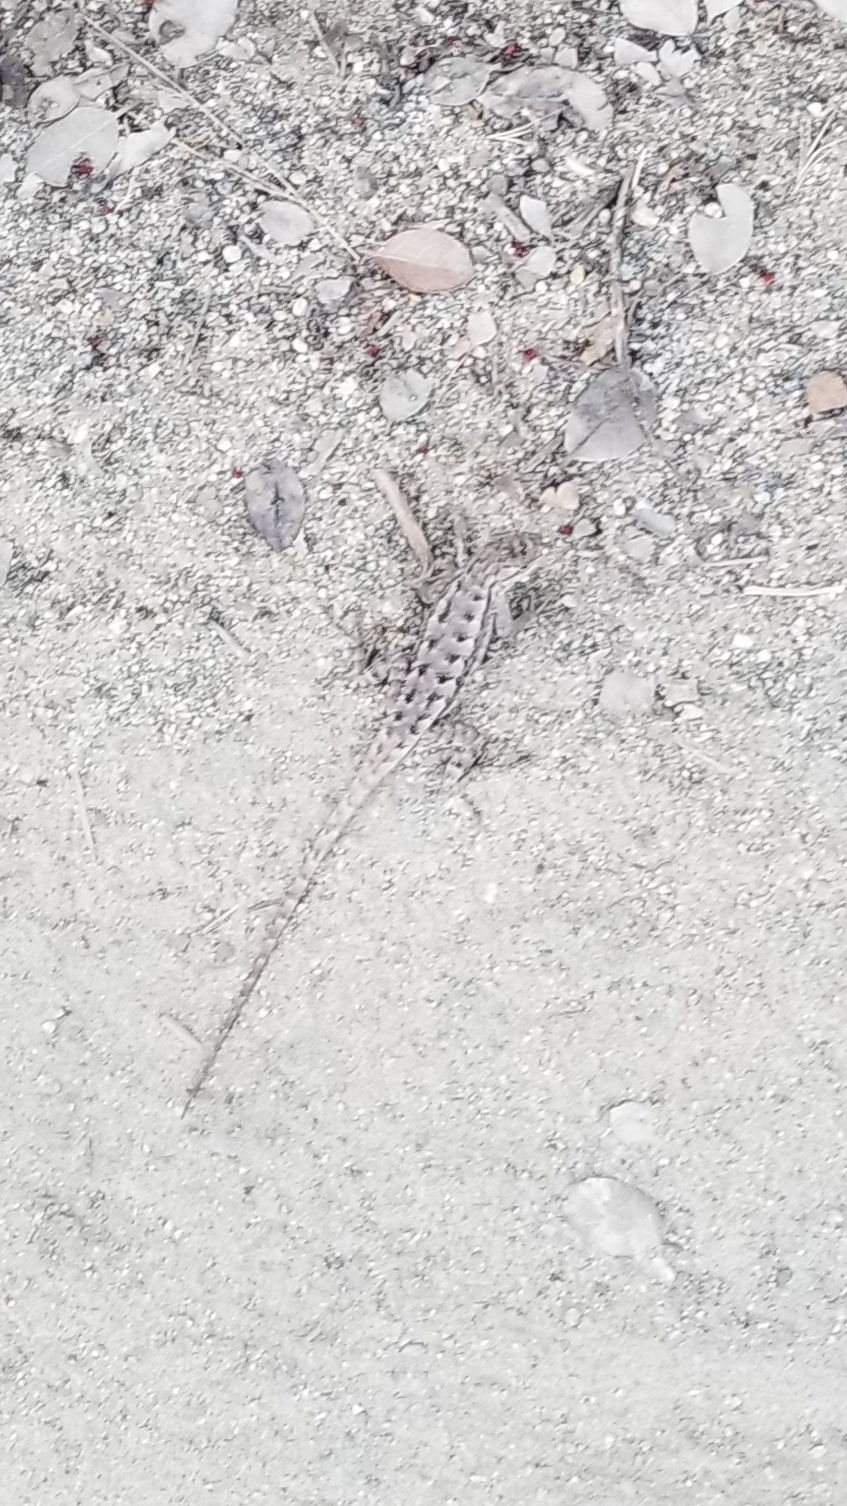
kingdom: Animalia
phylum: Chordata
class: Squamata
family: Phrynosomatidae
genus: Sceloporus
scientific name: Sceloporus occidentalis
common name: Western fence lizard
